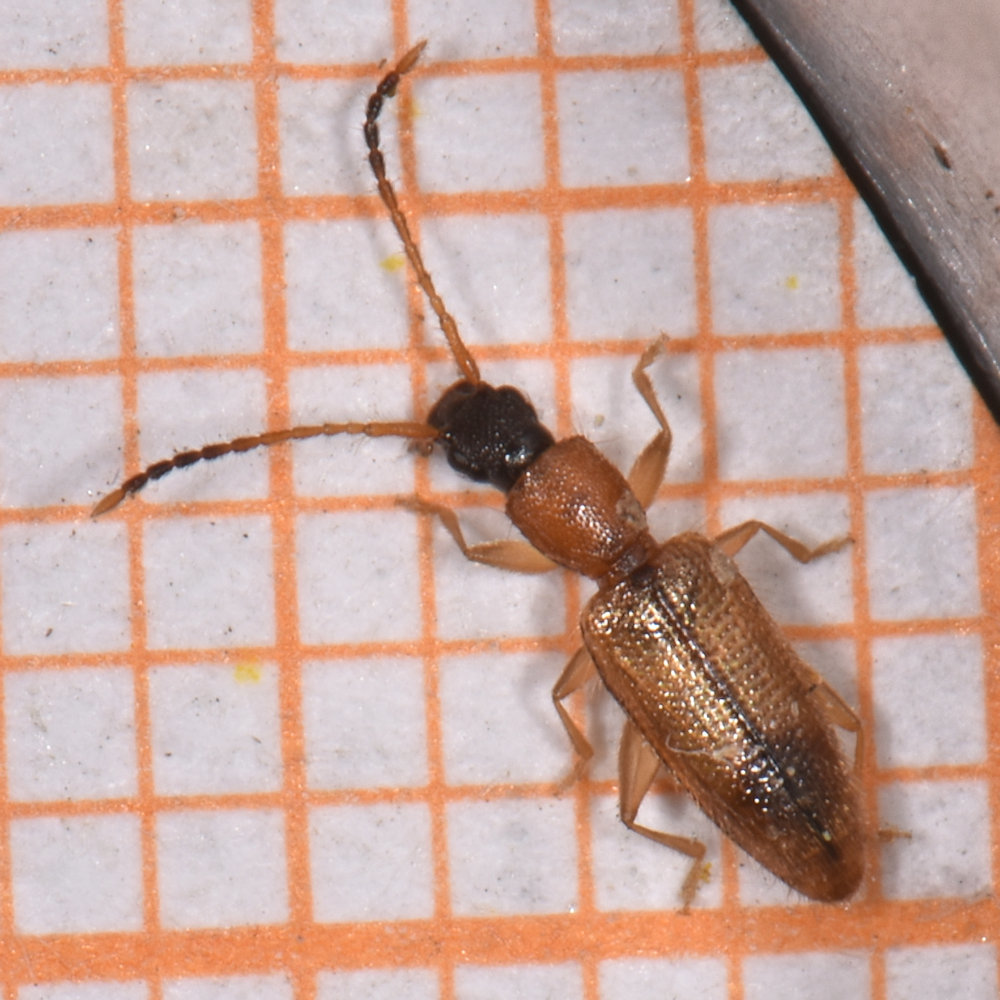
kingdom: Animalia
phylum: Arthropoda
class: Insecta
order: Coleoptera
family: Silvanidae
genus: Telephanus
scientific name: Telephanus velox
